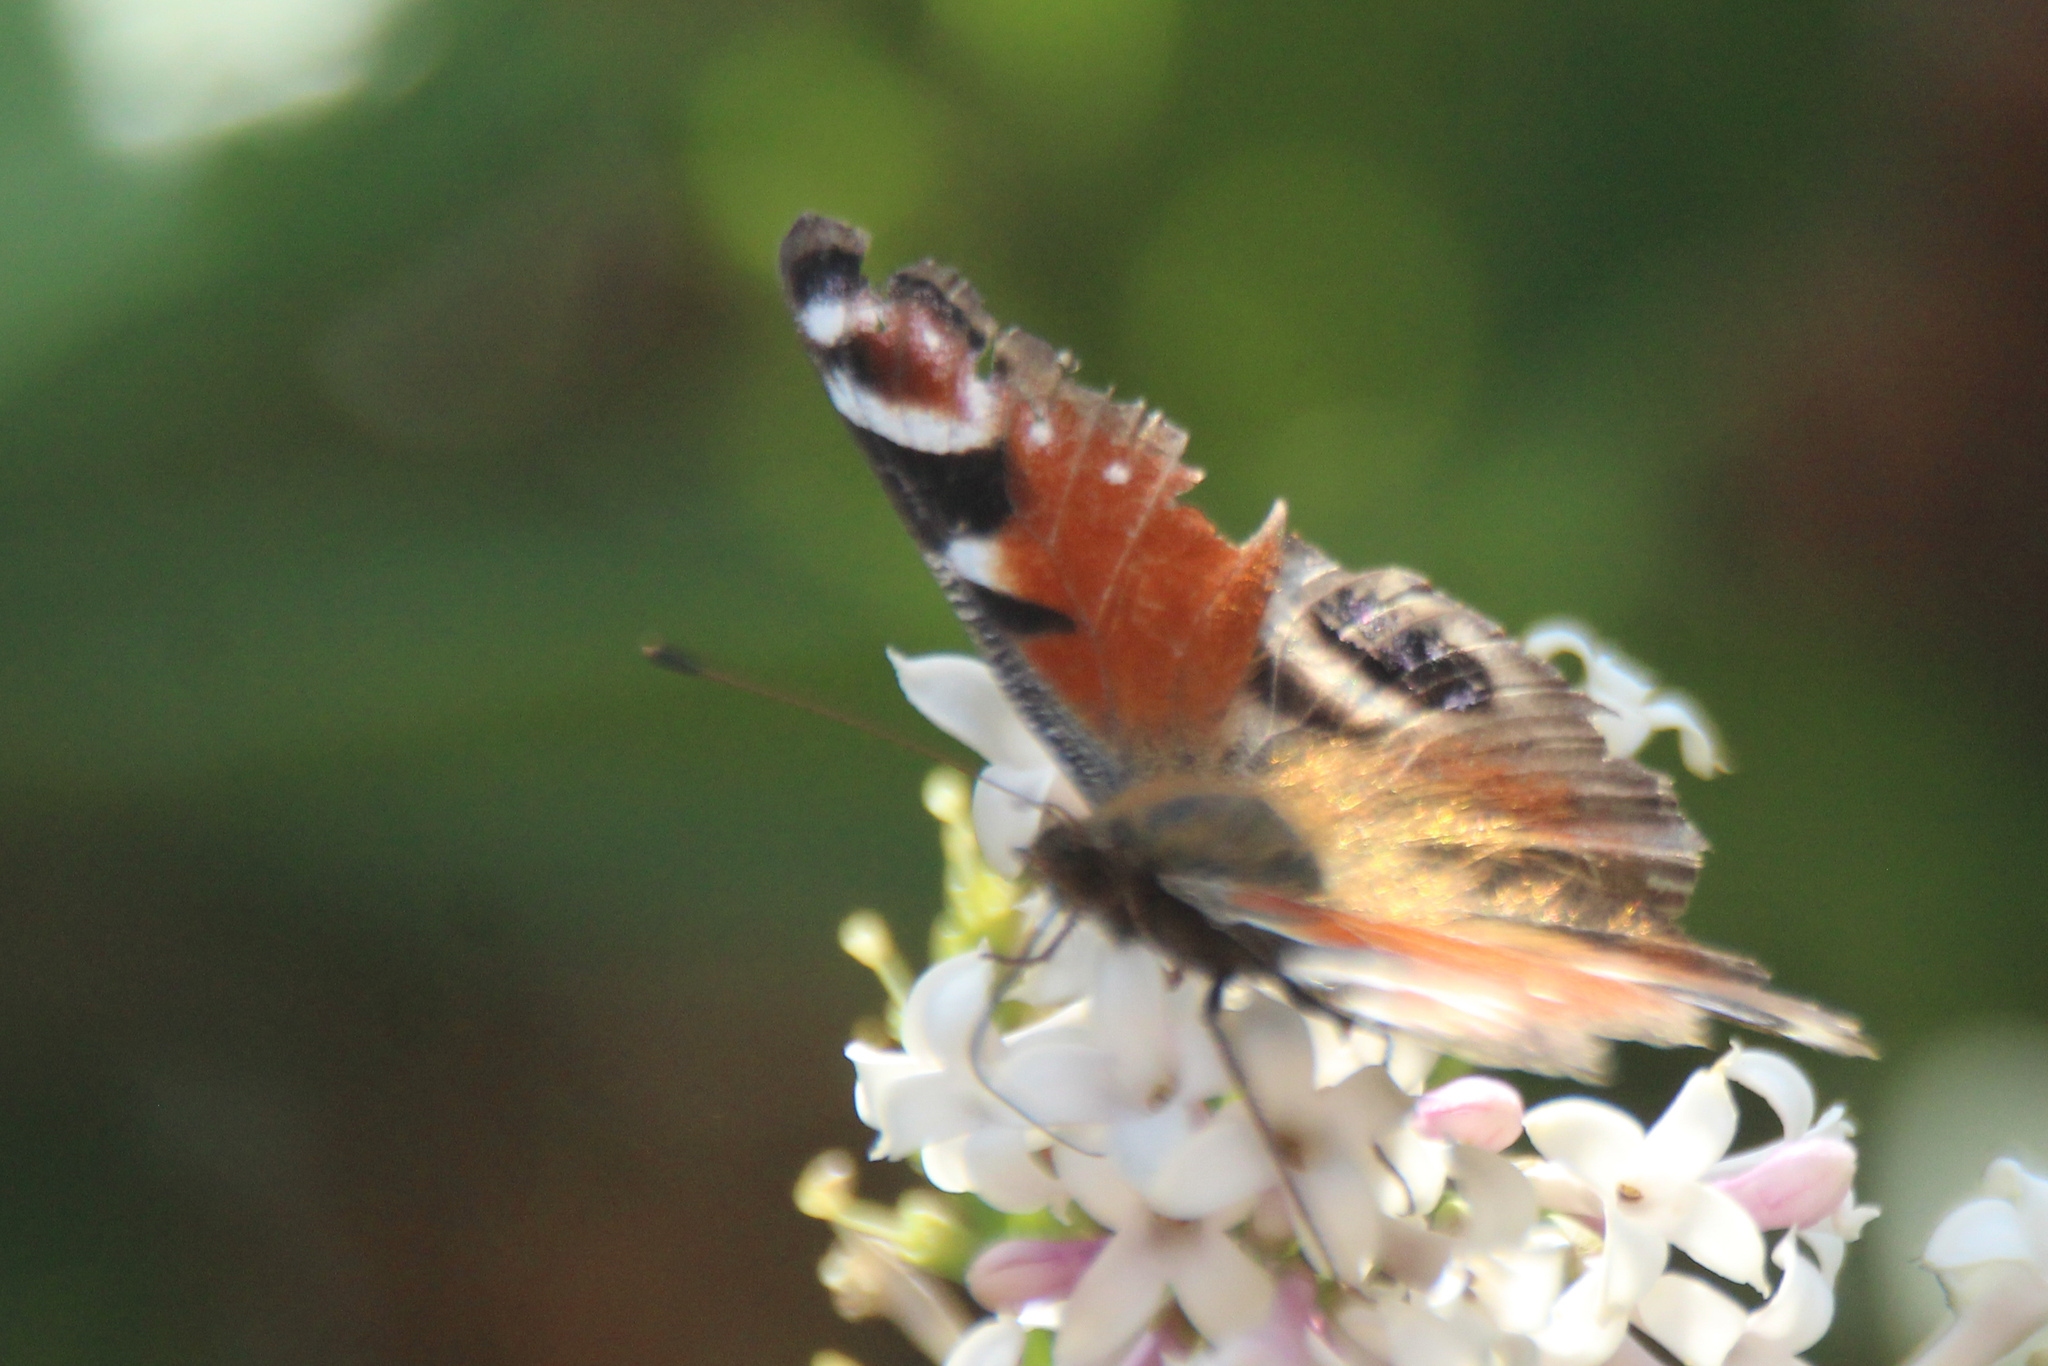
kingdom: Animalia
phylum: Arthropoda
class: Insecta
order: Lepidoptera
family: Nymphalidae
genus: Aglais
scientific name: Aglais io
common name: Peacock
